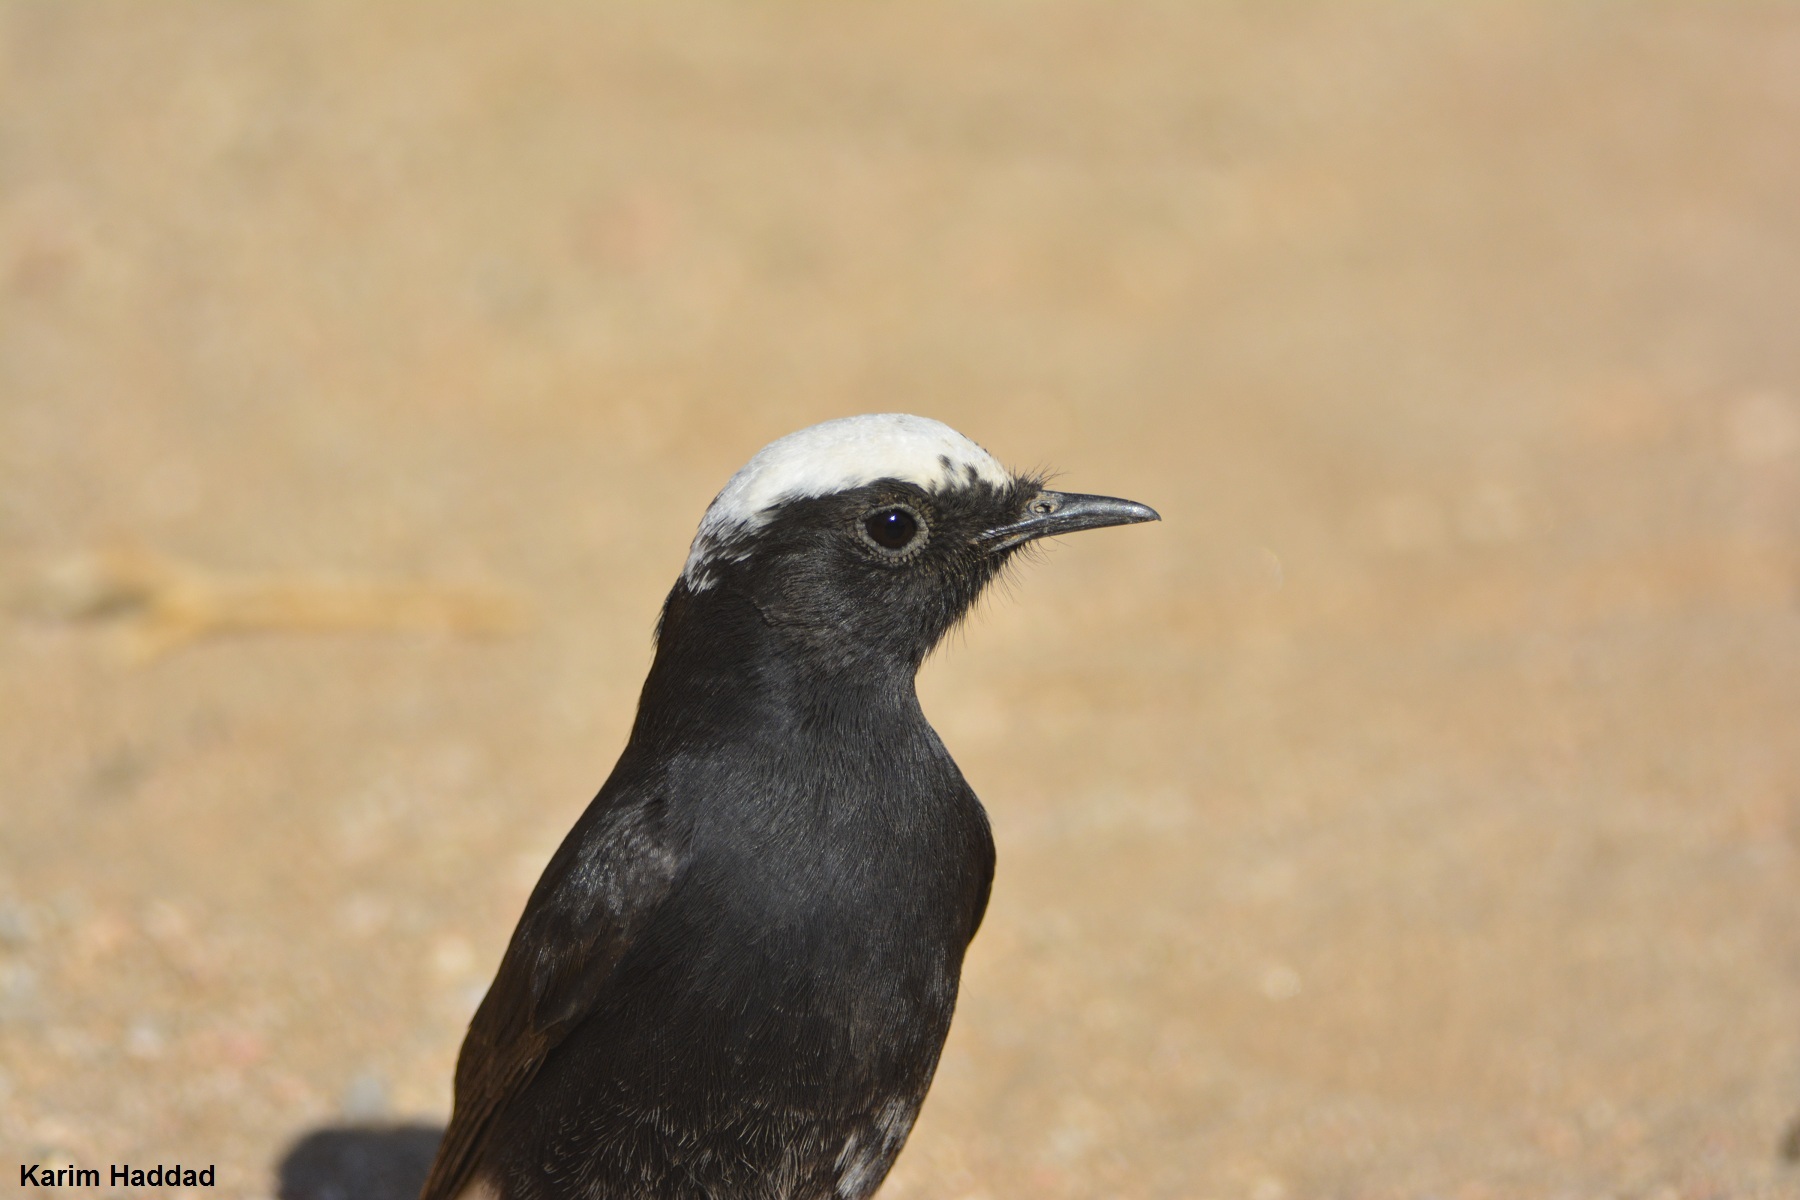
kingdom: Animalia
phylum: Chordata
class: Aves
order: Passeriformes
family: Muscicapidae
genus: Oenanthe
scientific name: Oenanthe leucopyga
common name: White-crowned wheatear
